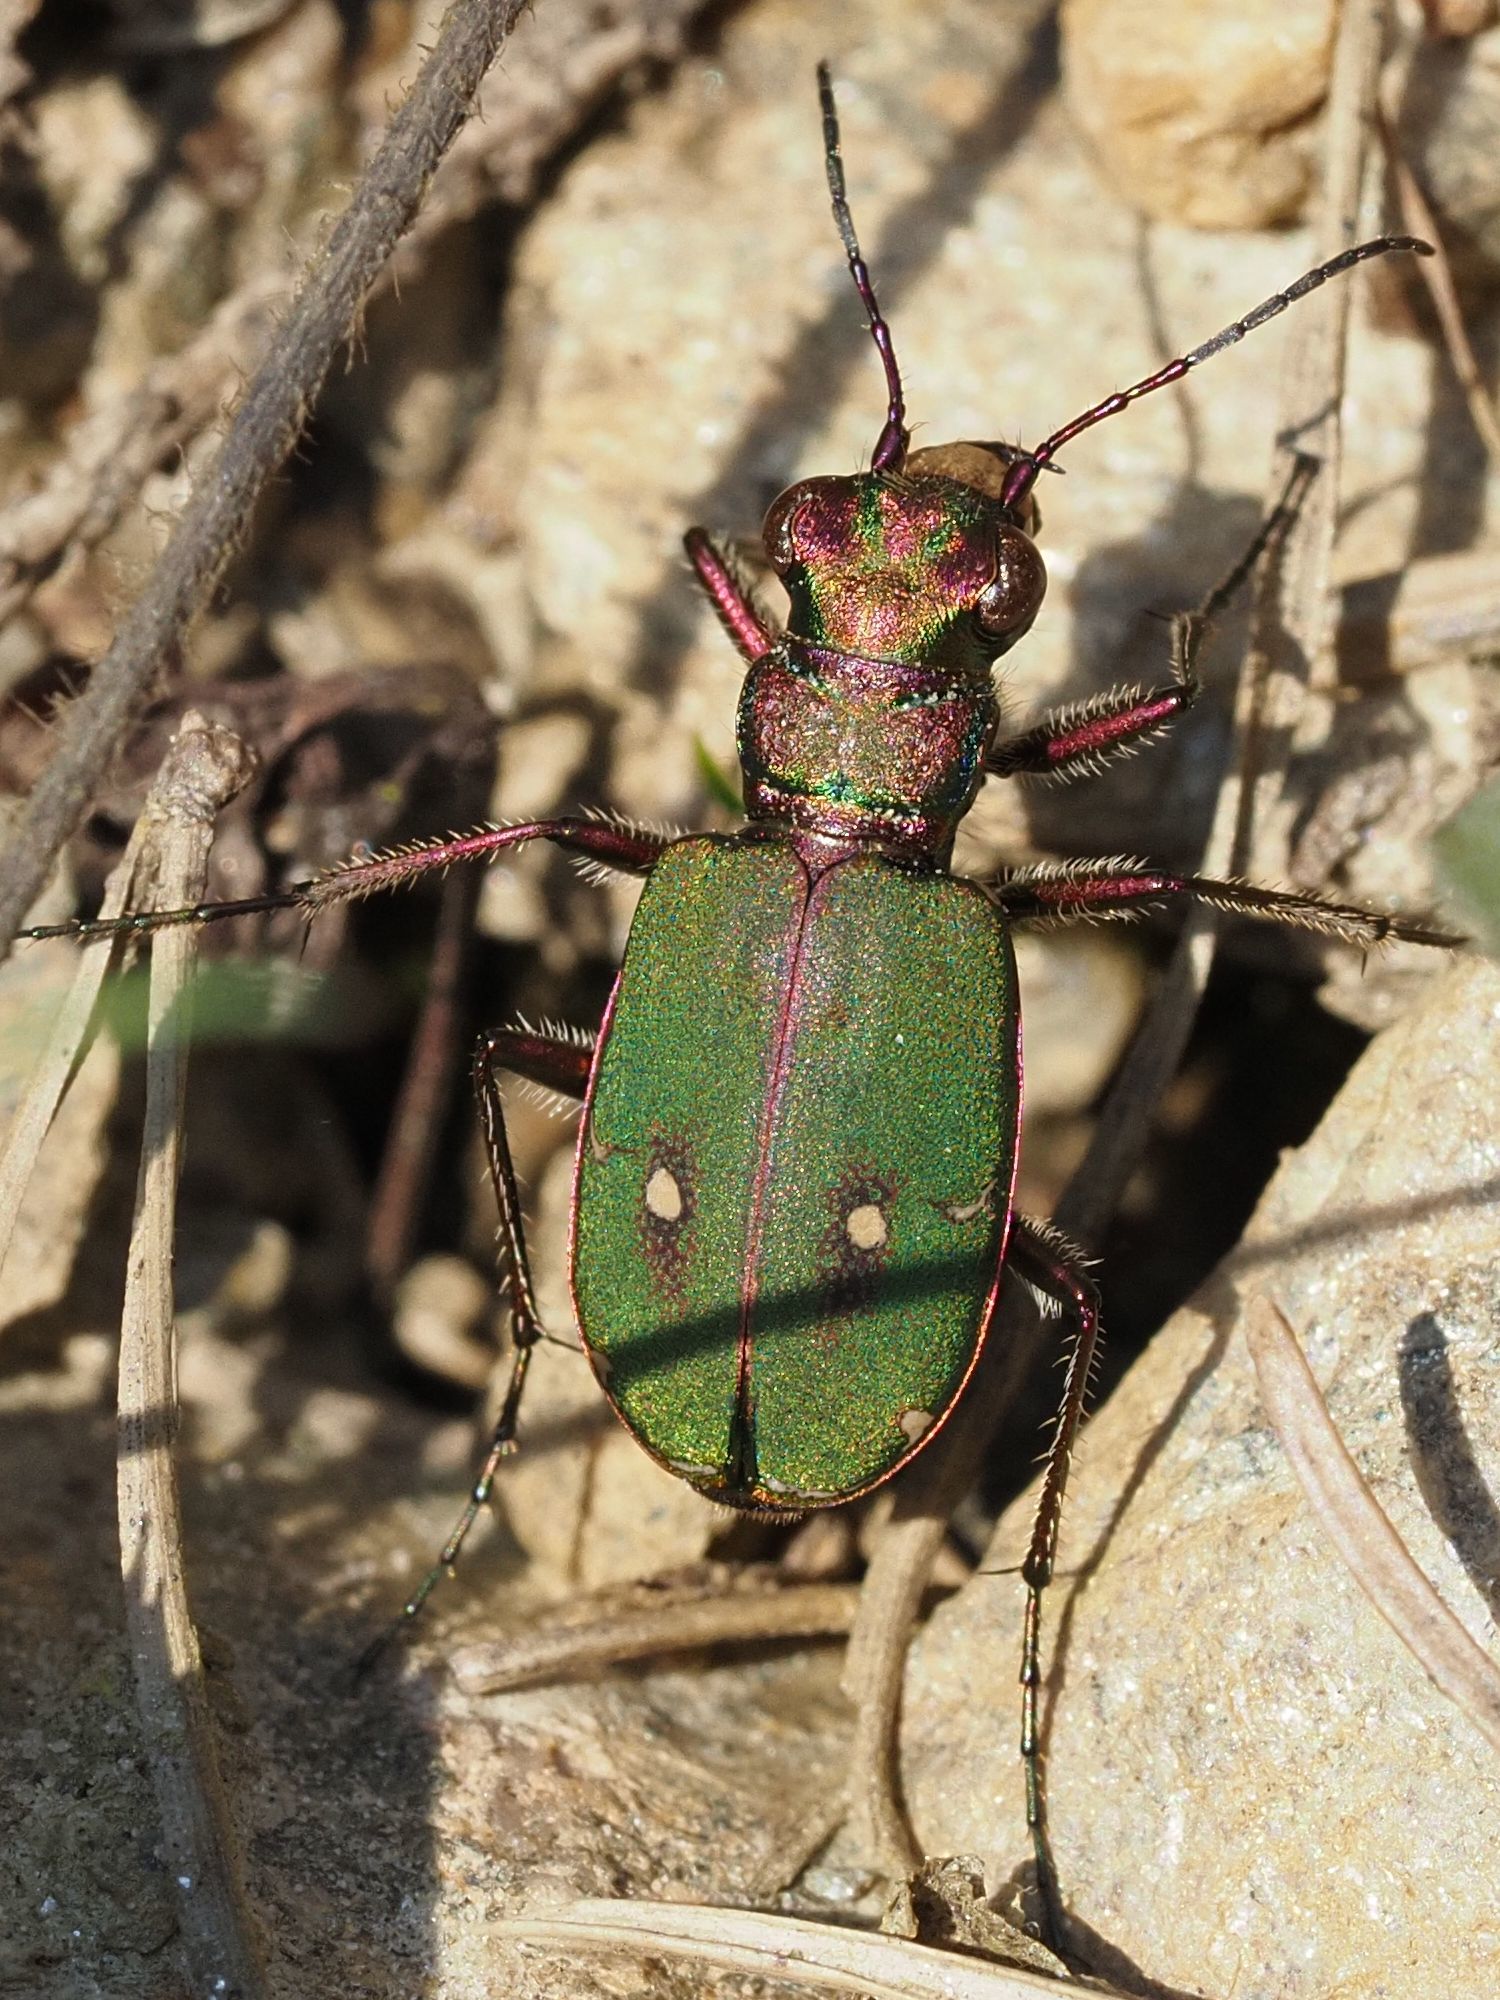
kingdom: Animalia
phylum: Arthropoda
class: Insecta
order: Coleoptera
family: Carabidae
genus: Cicindela
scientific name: Cicindela campestris
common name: Common tiger beetle
